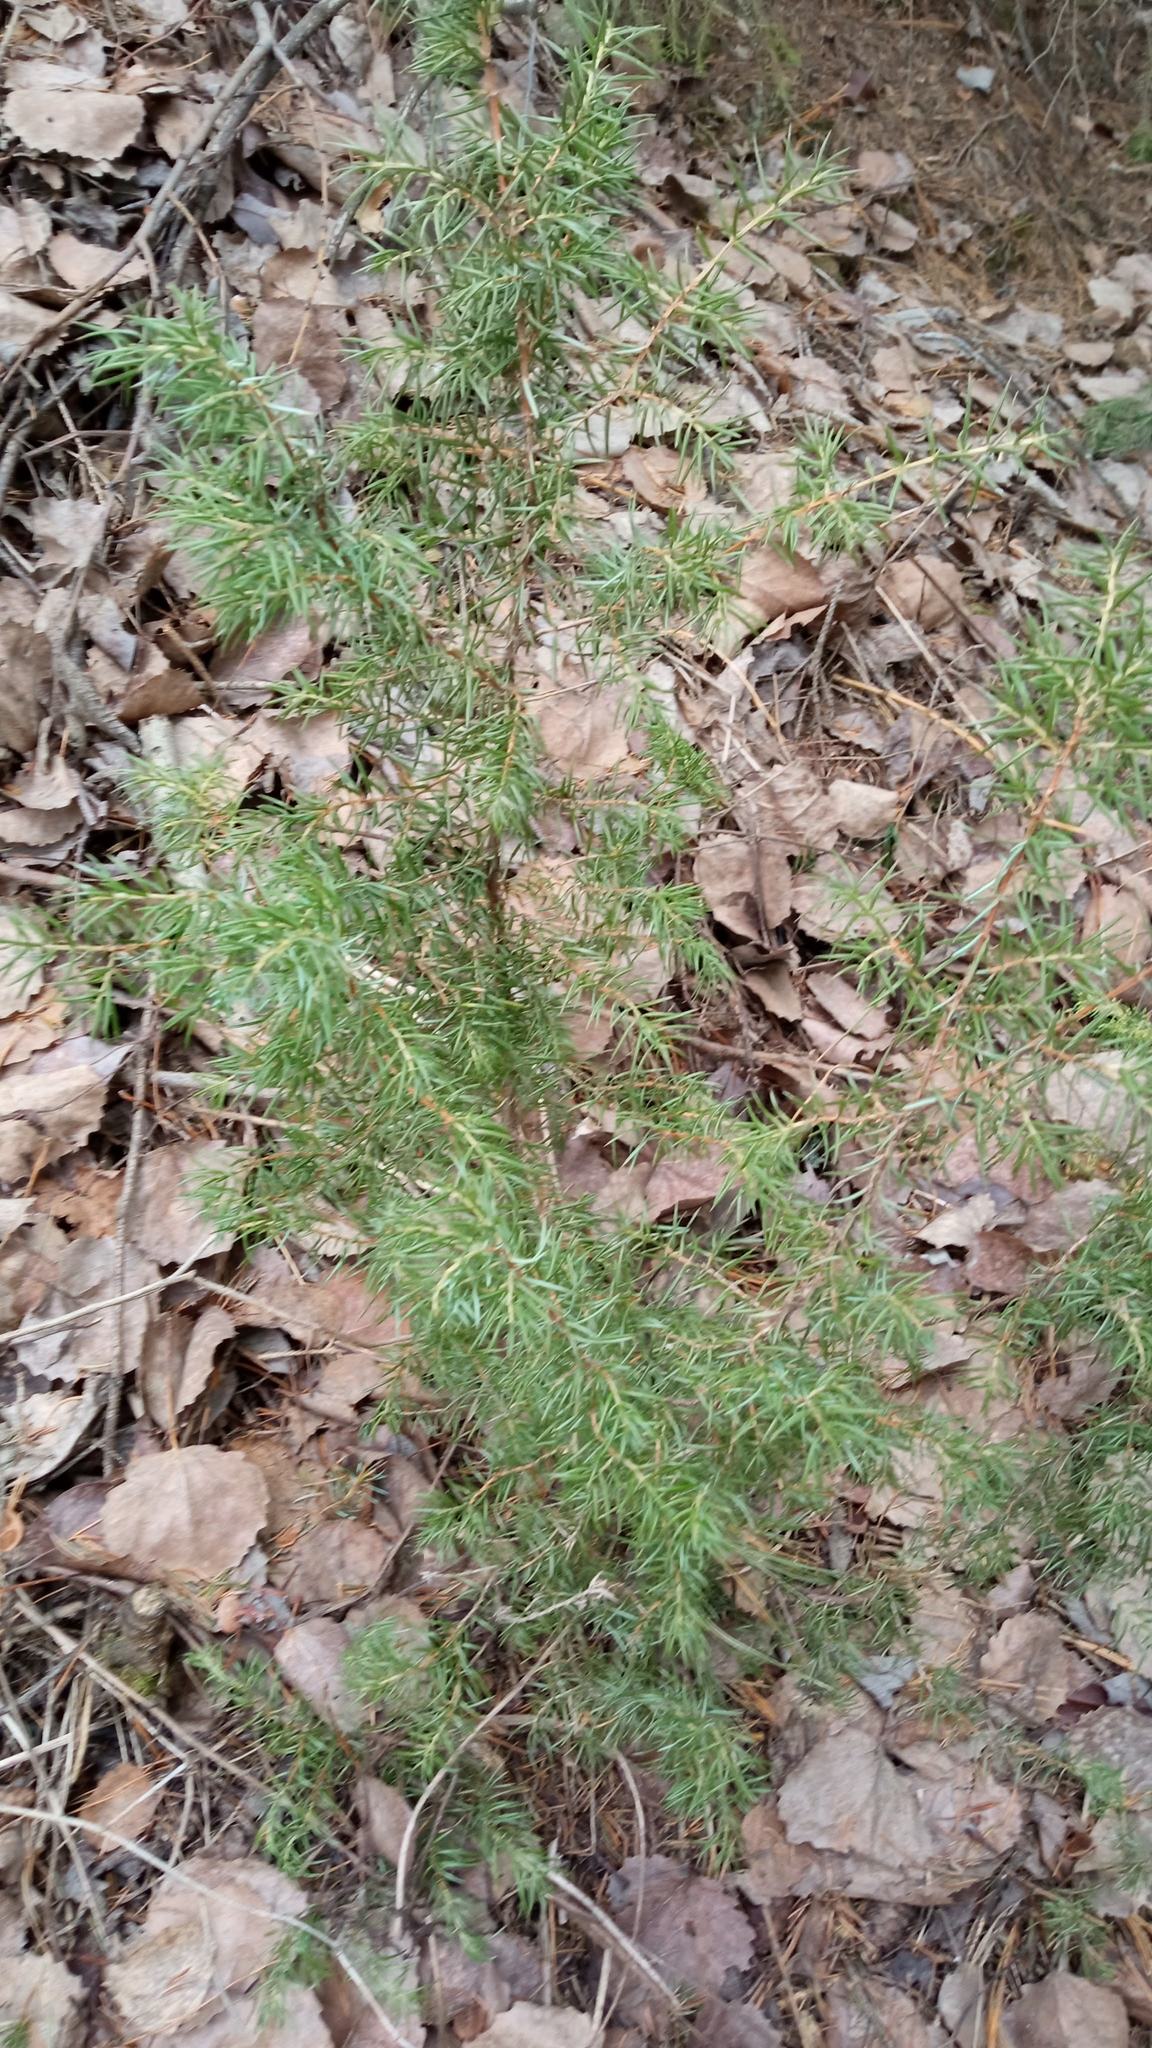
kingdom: Plantae
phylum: Tracheophyta
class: Pinopsida
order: Pinales
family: Cupressaceae
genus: Juniperus
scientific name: Juniperus communis
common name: Common juniper
